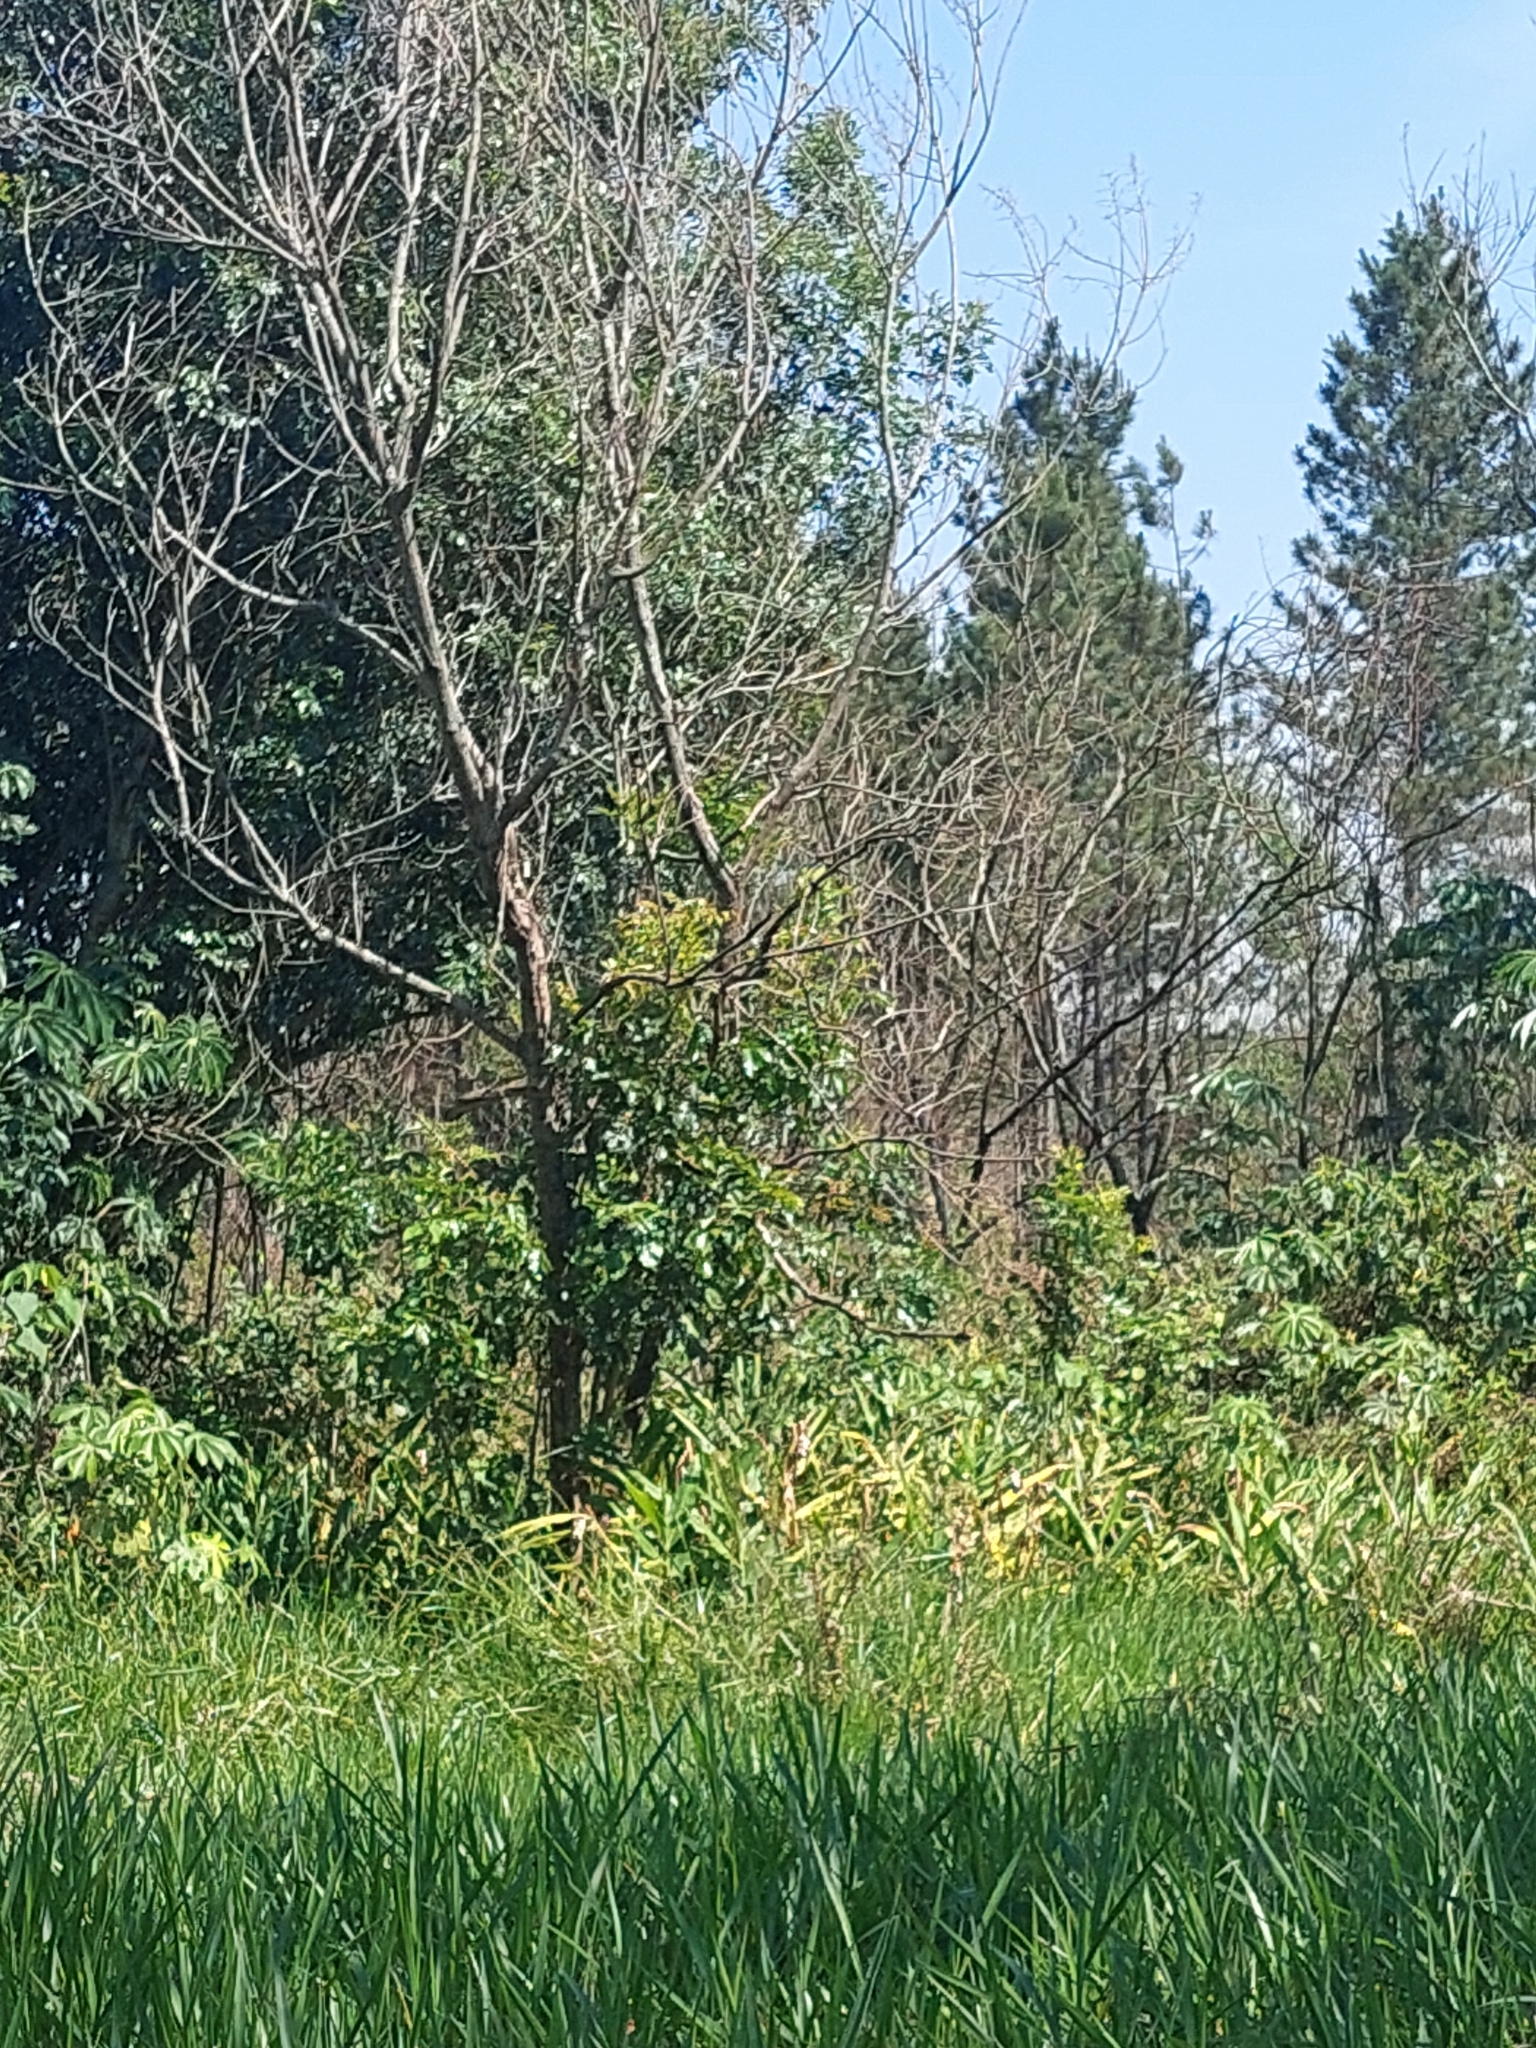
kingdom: Plantae
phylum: Tracheophyta
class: Liliopsida
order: Zingiberales
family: Zingiberaceae
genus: Hedychium
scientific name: Hedychium coronarium
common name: White garland-lily
